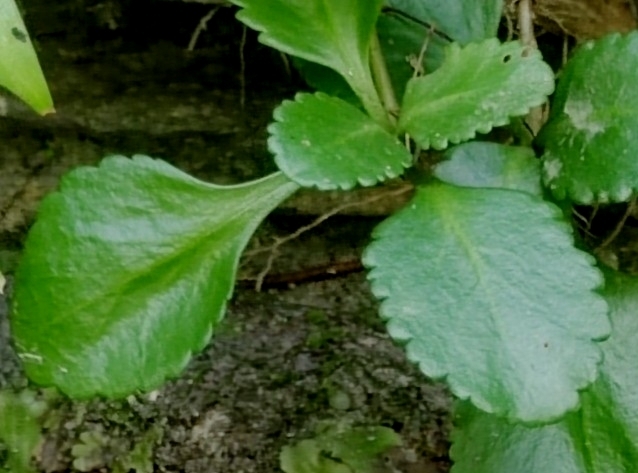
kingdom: Plantae
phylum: Tracheophyta
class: Magnoliopsida
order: Saxifragales
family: Crassulaceae
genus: Umbilicus
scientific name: Umbilicus oppositifolius
